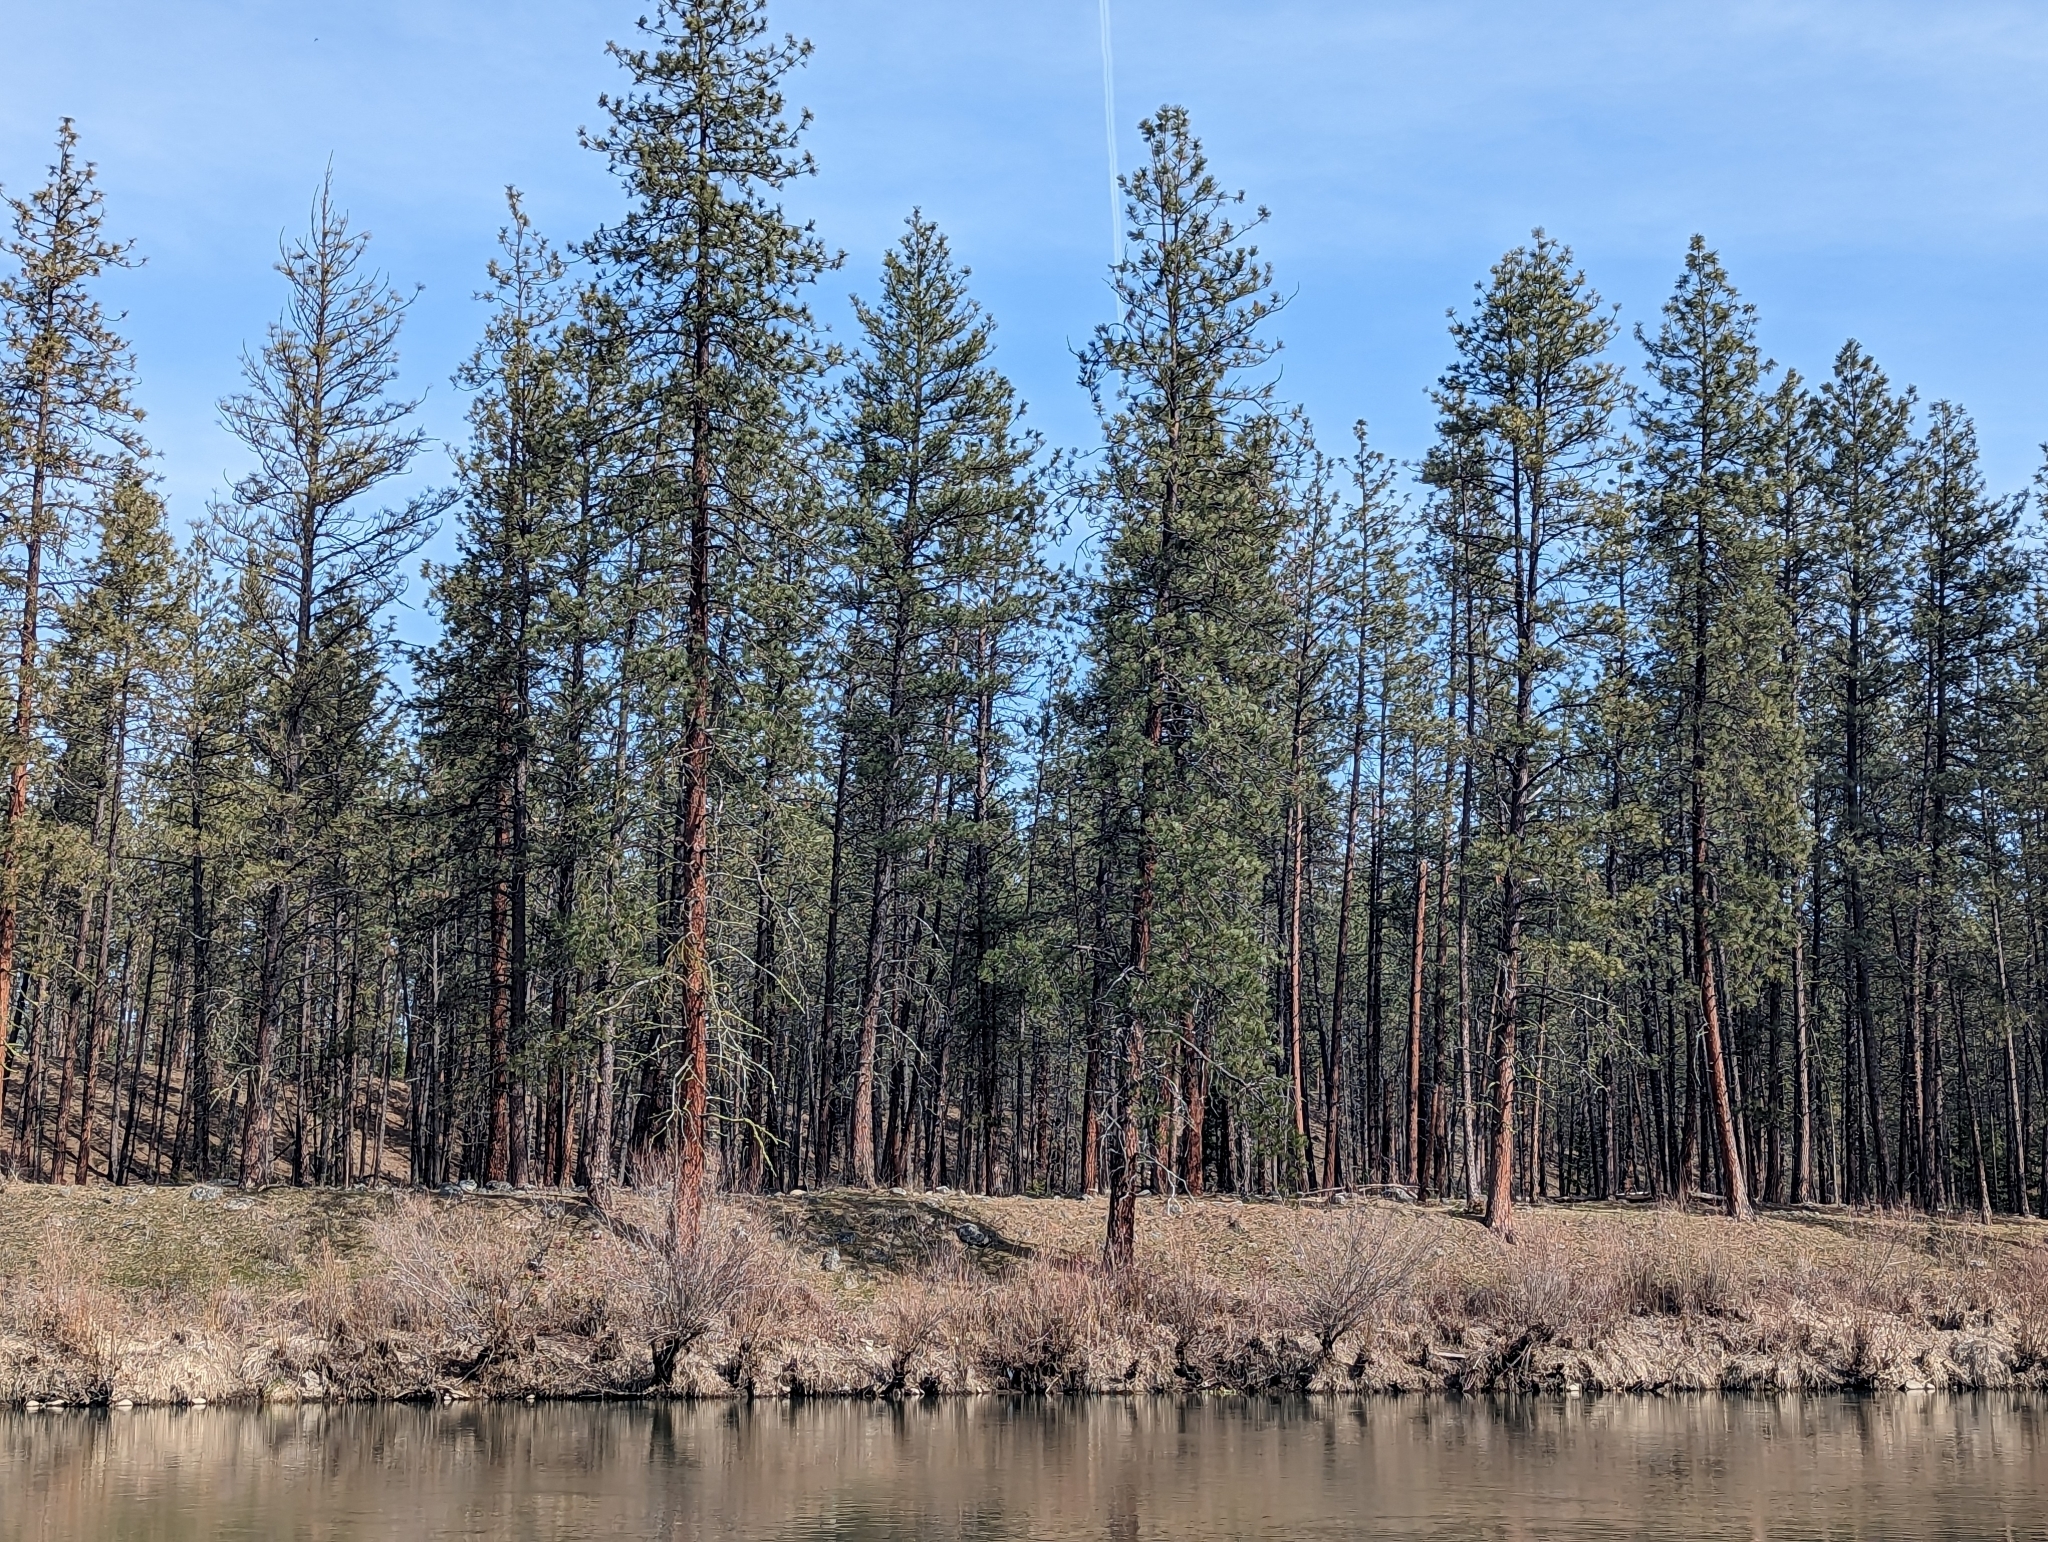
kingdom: Plantae
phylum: Tracheophyta
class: Pinopsida
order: Pinales
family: Pinaceae
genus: Pinus
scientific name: Pinus ponderosa
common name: Western yellow-pine
